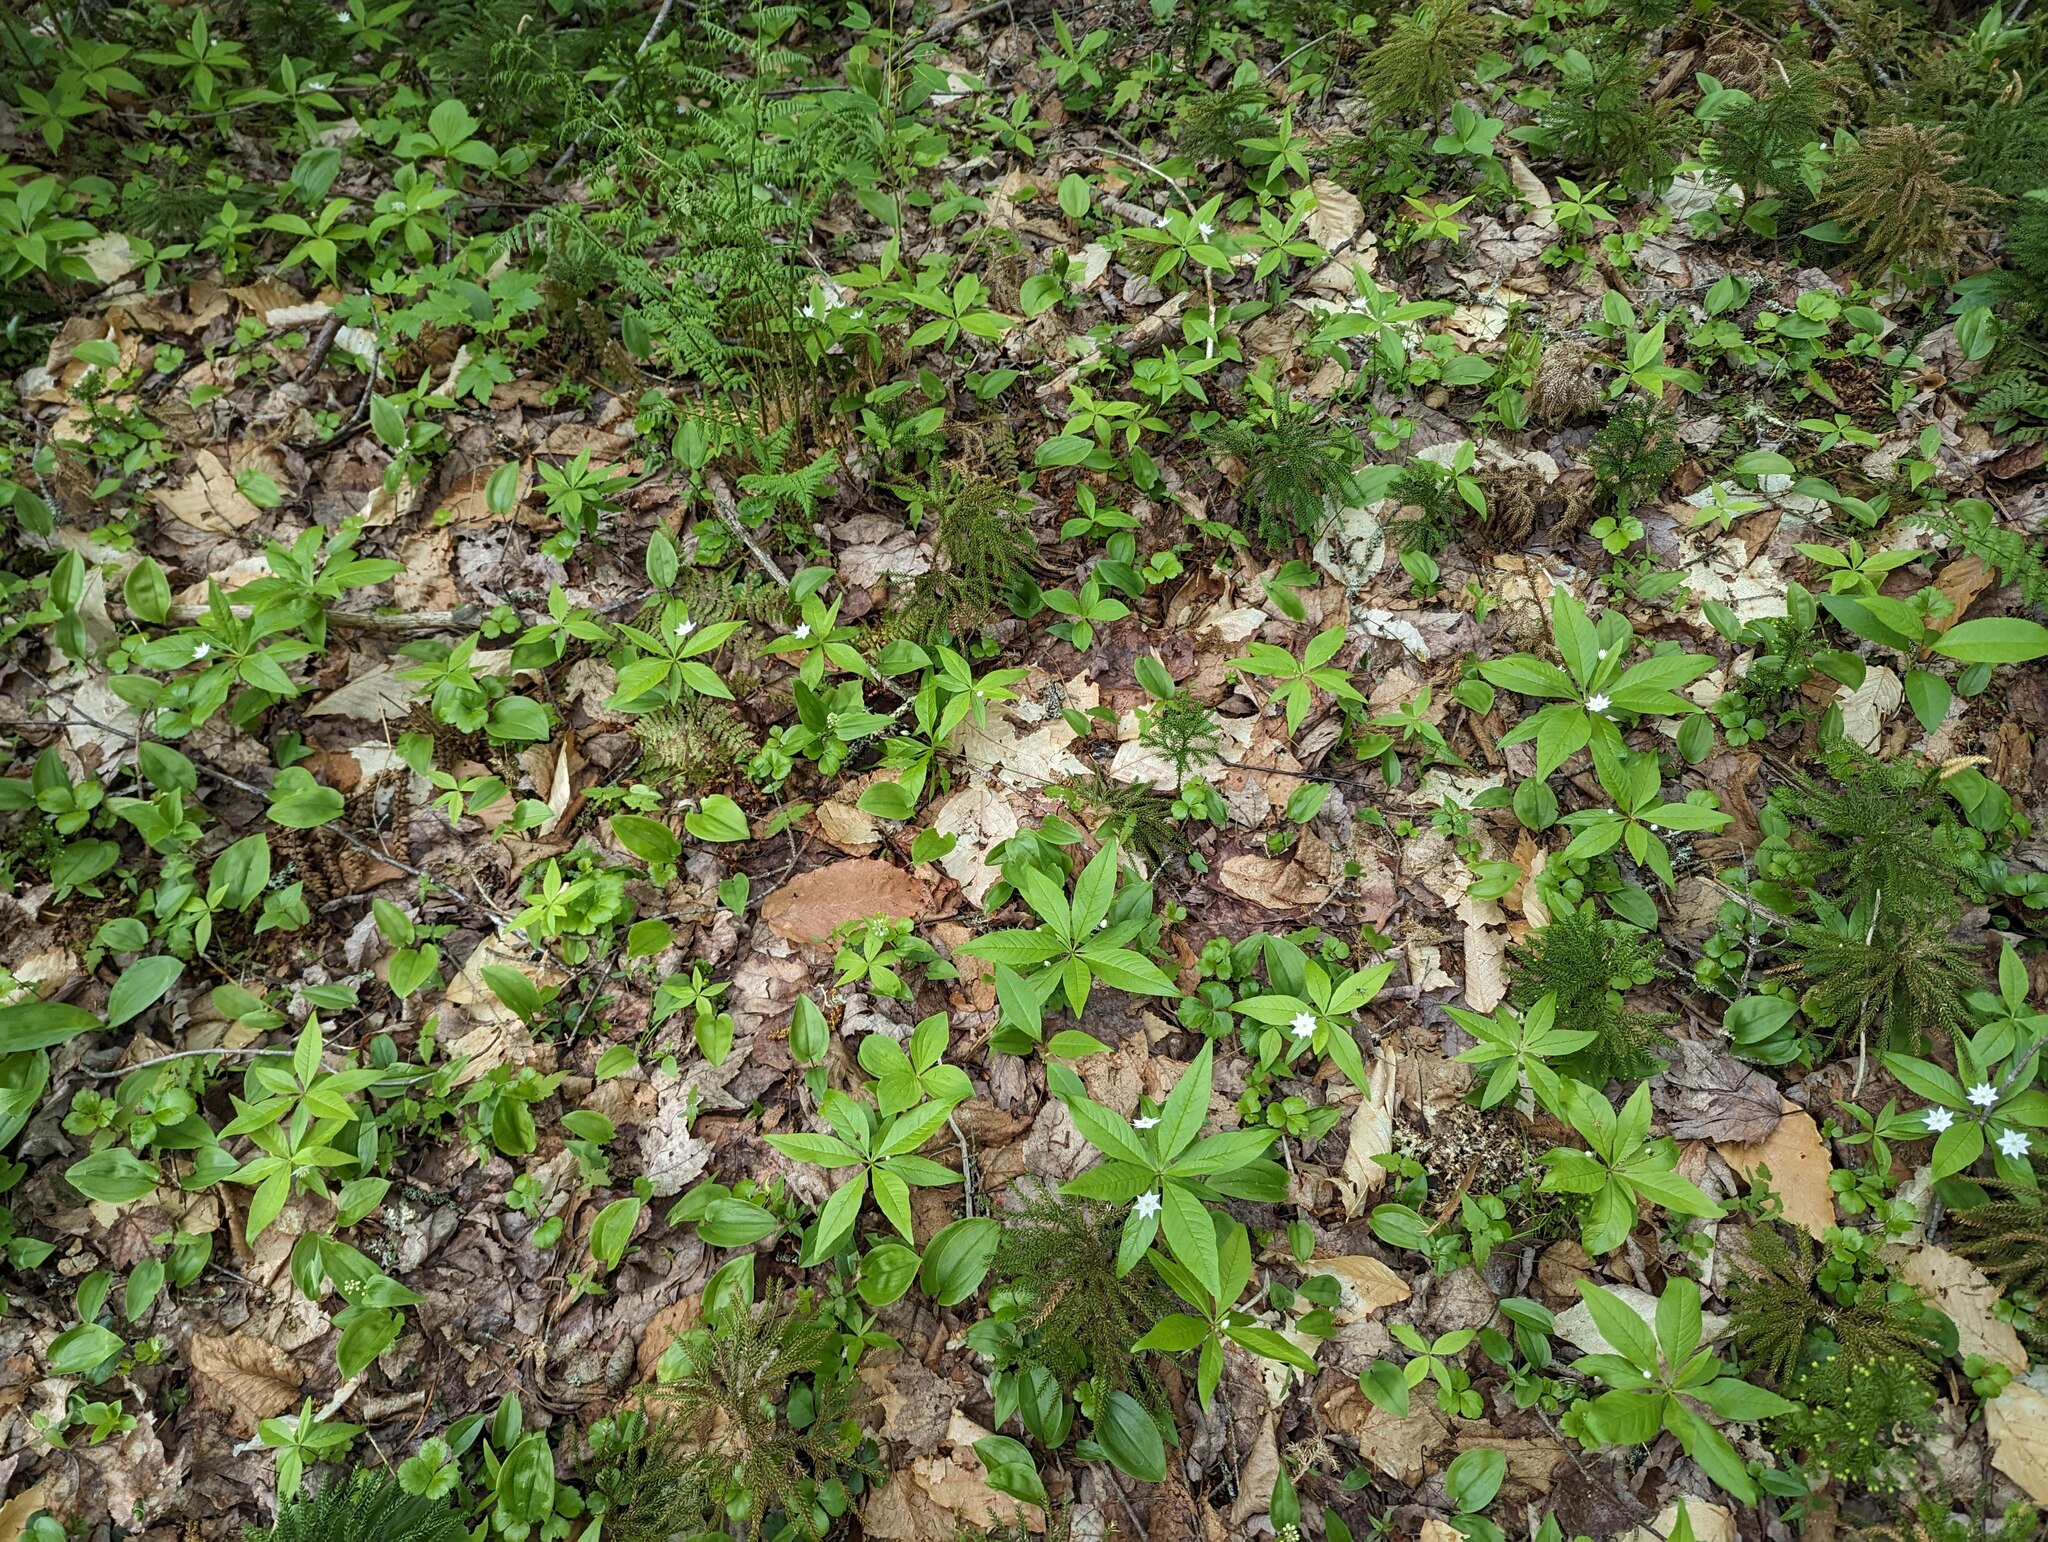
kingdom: Plantae
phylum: Tracheophyta
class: Magnoliopsida
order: Ericales
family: Primulaceae
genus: Lysimachia
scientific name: Lysimachia borealis
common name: American starflower
